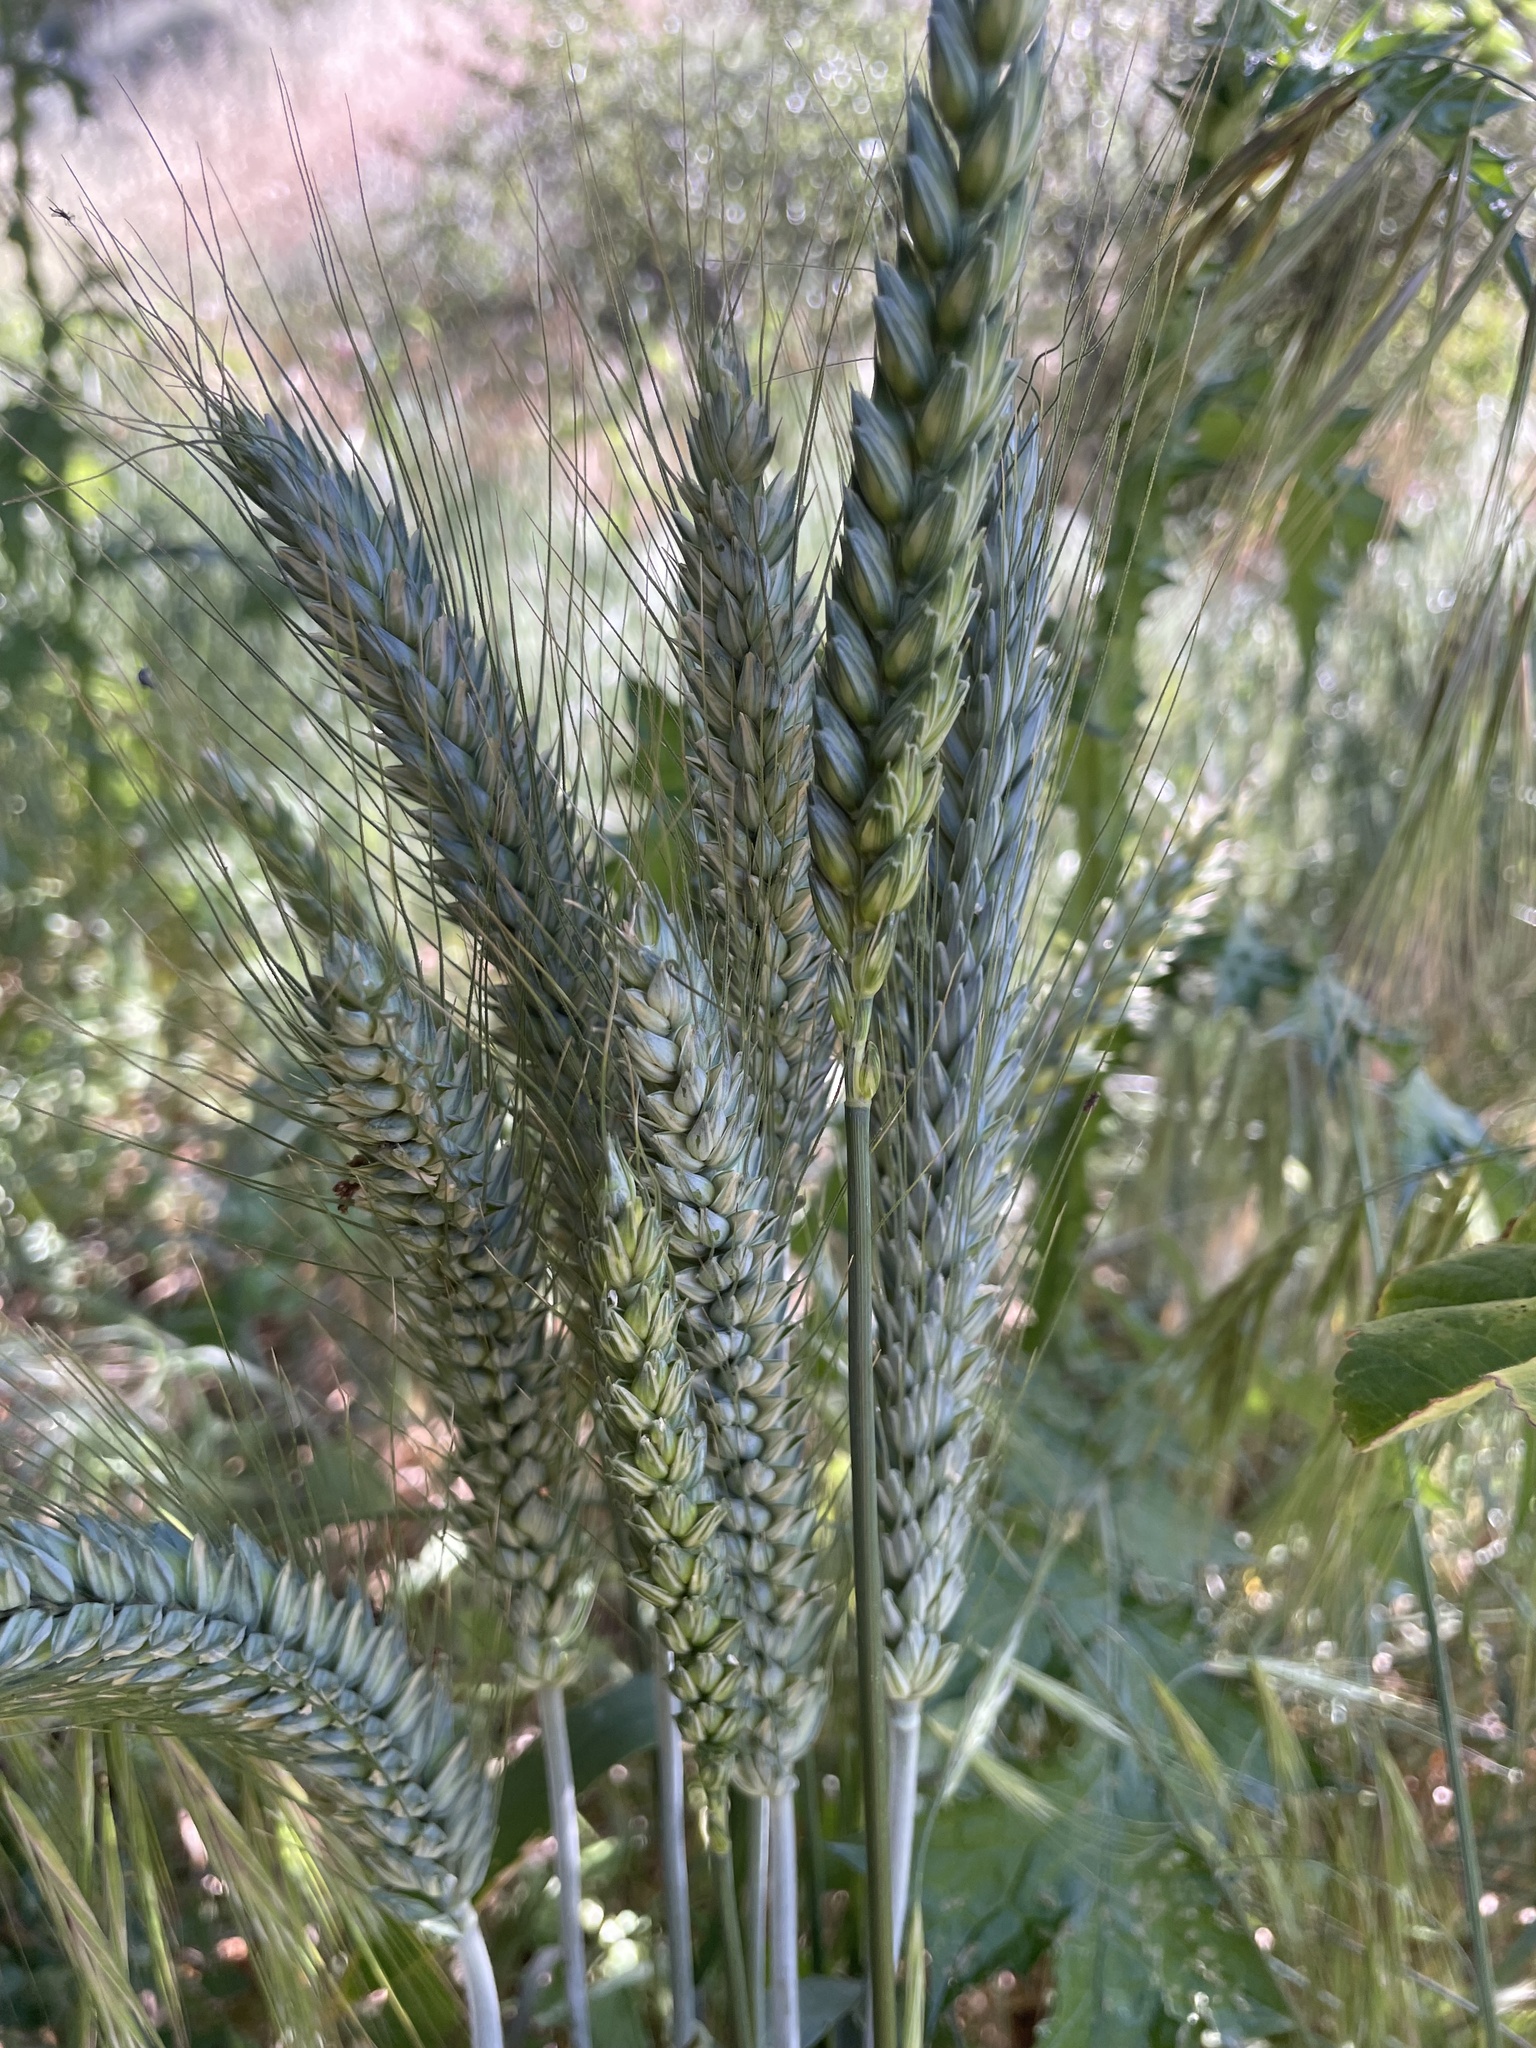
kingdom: Plantae
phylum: Tracheophyta
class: Liliopsida
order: Poales
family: Poaceae
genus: Triticum
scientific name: Triticum aestivum
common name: Common wheat
